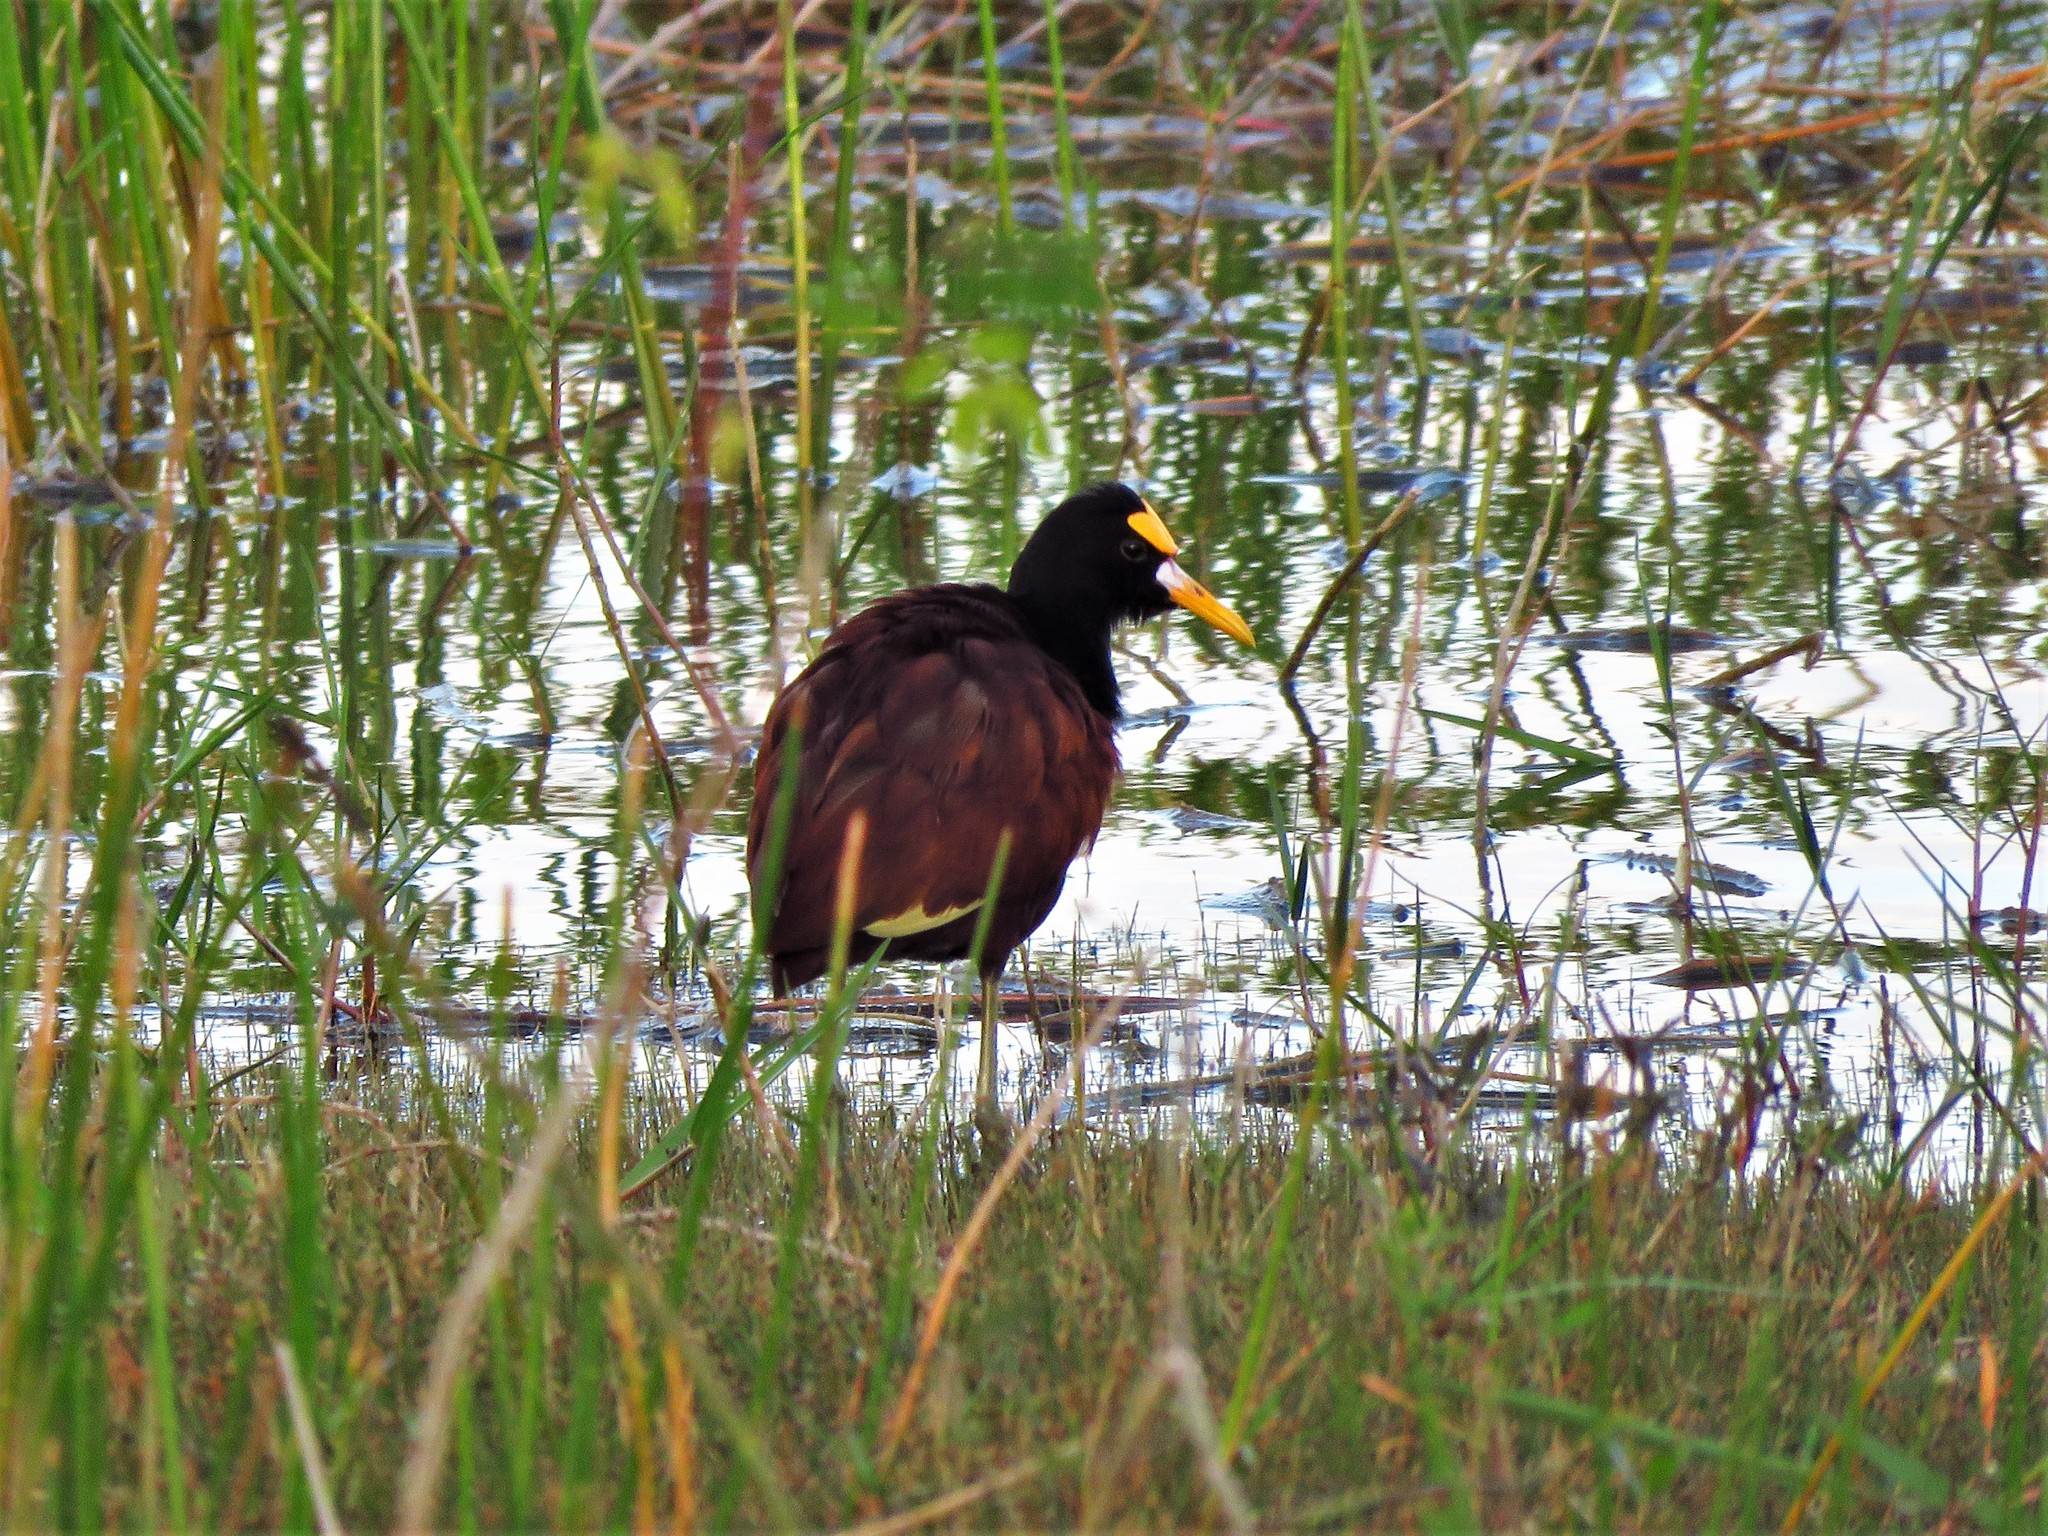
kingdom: Animalia
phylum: Chordata
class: Aves
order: Charadriiformes
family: Jacanidae
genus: Jacana
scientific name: Jacana spinosa
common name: Northern jacana
